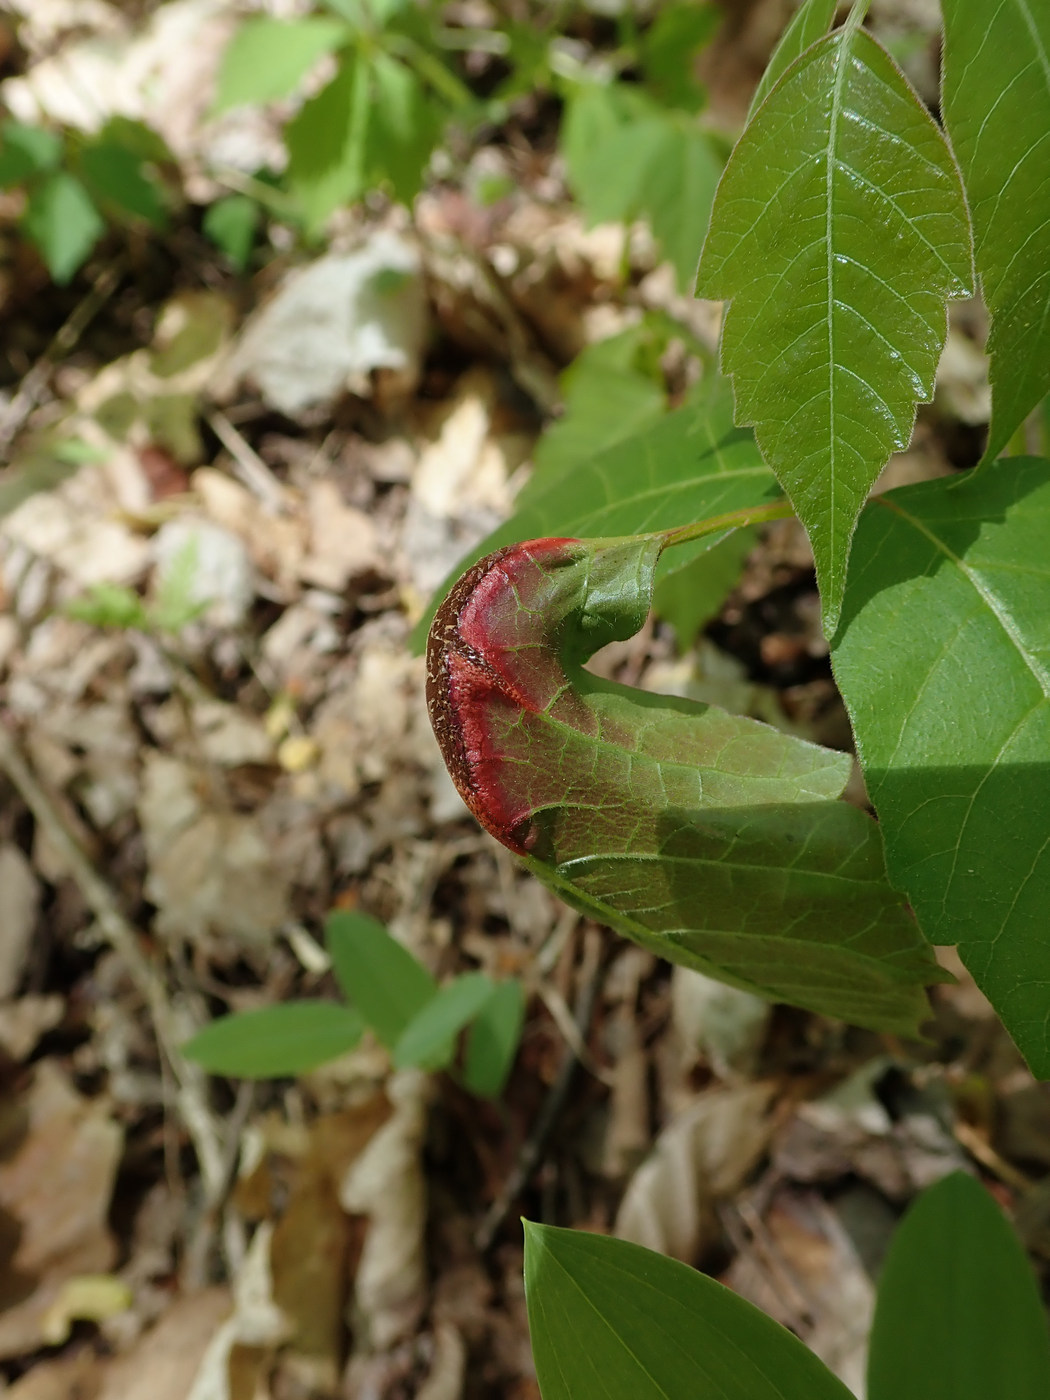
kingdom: Fungi
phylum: Basidiomycota
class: Pucciniomycetes
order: Pucciniales
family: Pileolariaceae
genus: Pileolaria
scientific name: Pileolaria brevipes
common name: Poison ivy rust
